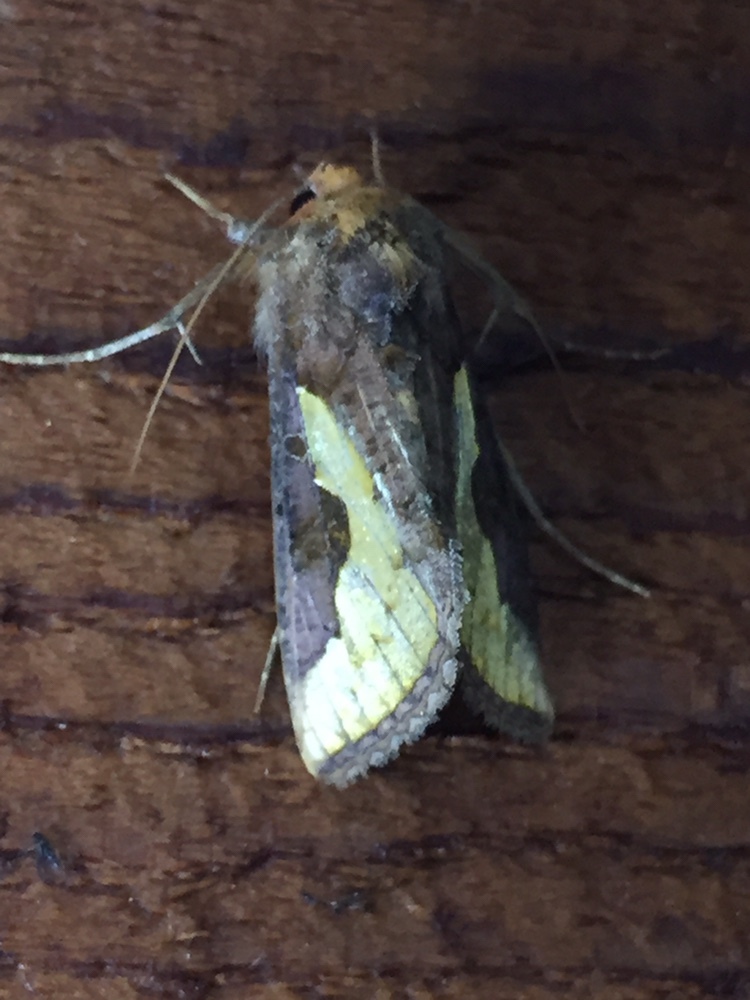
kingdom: Animalia
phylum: Arthropoda
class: Insecta
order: Lepidoptera
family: Noctuidae
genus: Thysanoplusia
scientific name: Thysanoplusia orichalcea
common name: Slender burnished brass, golden plusia
